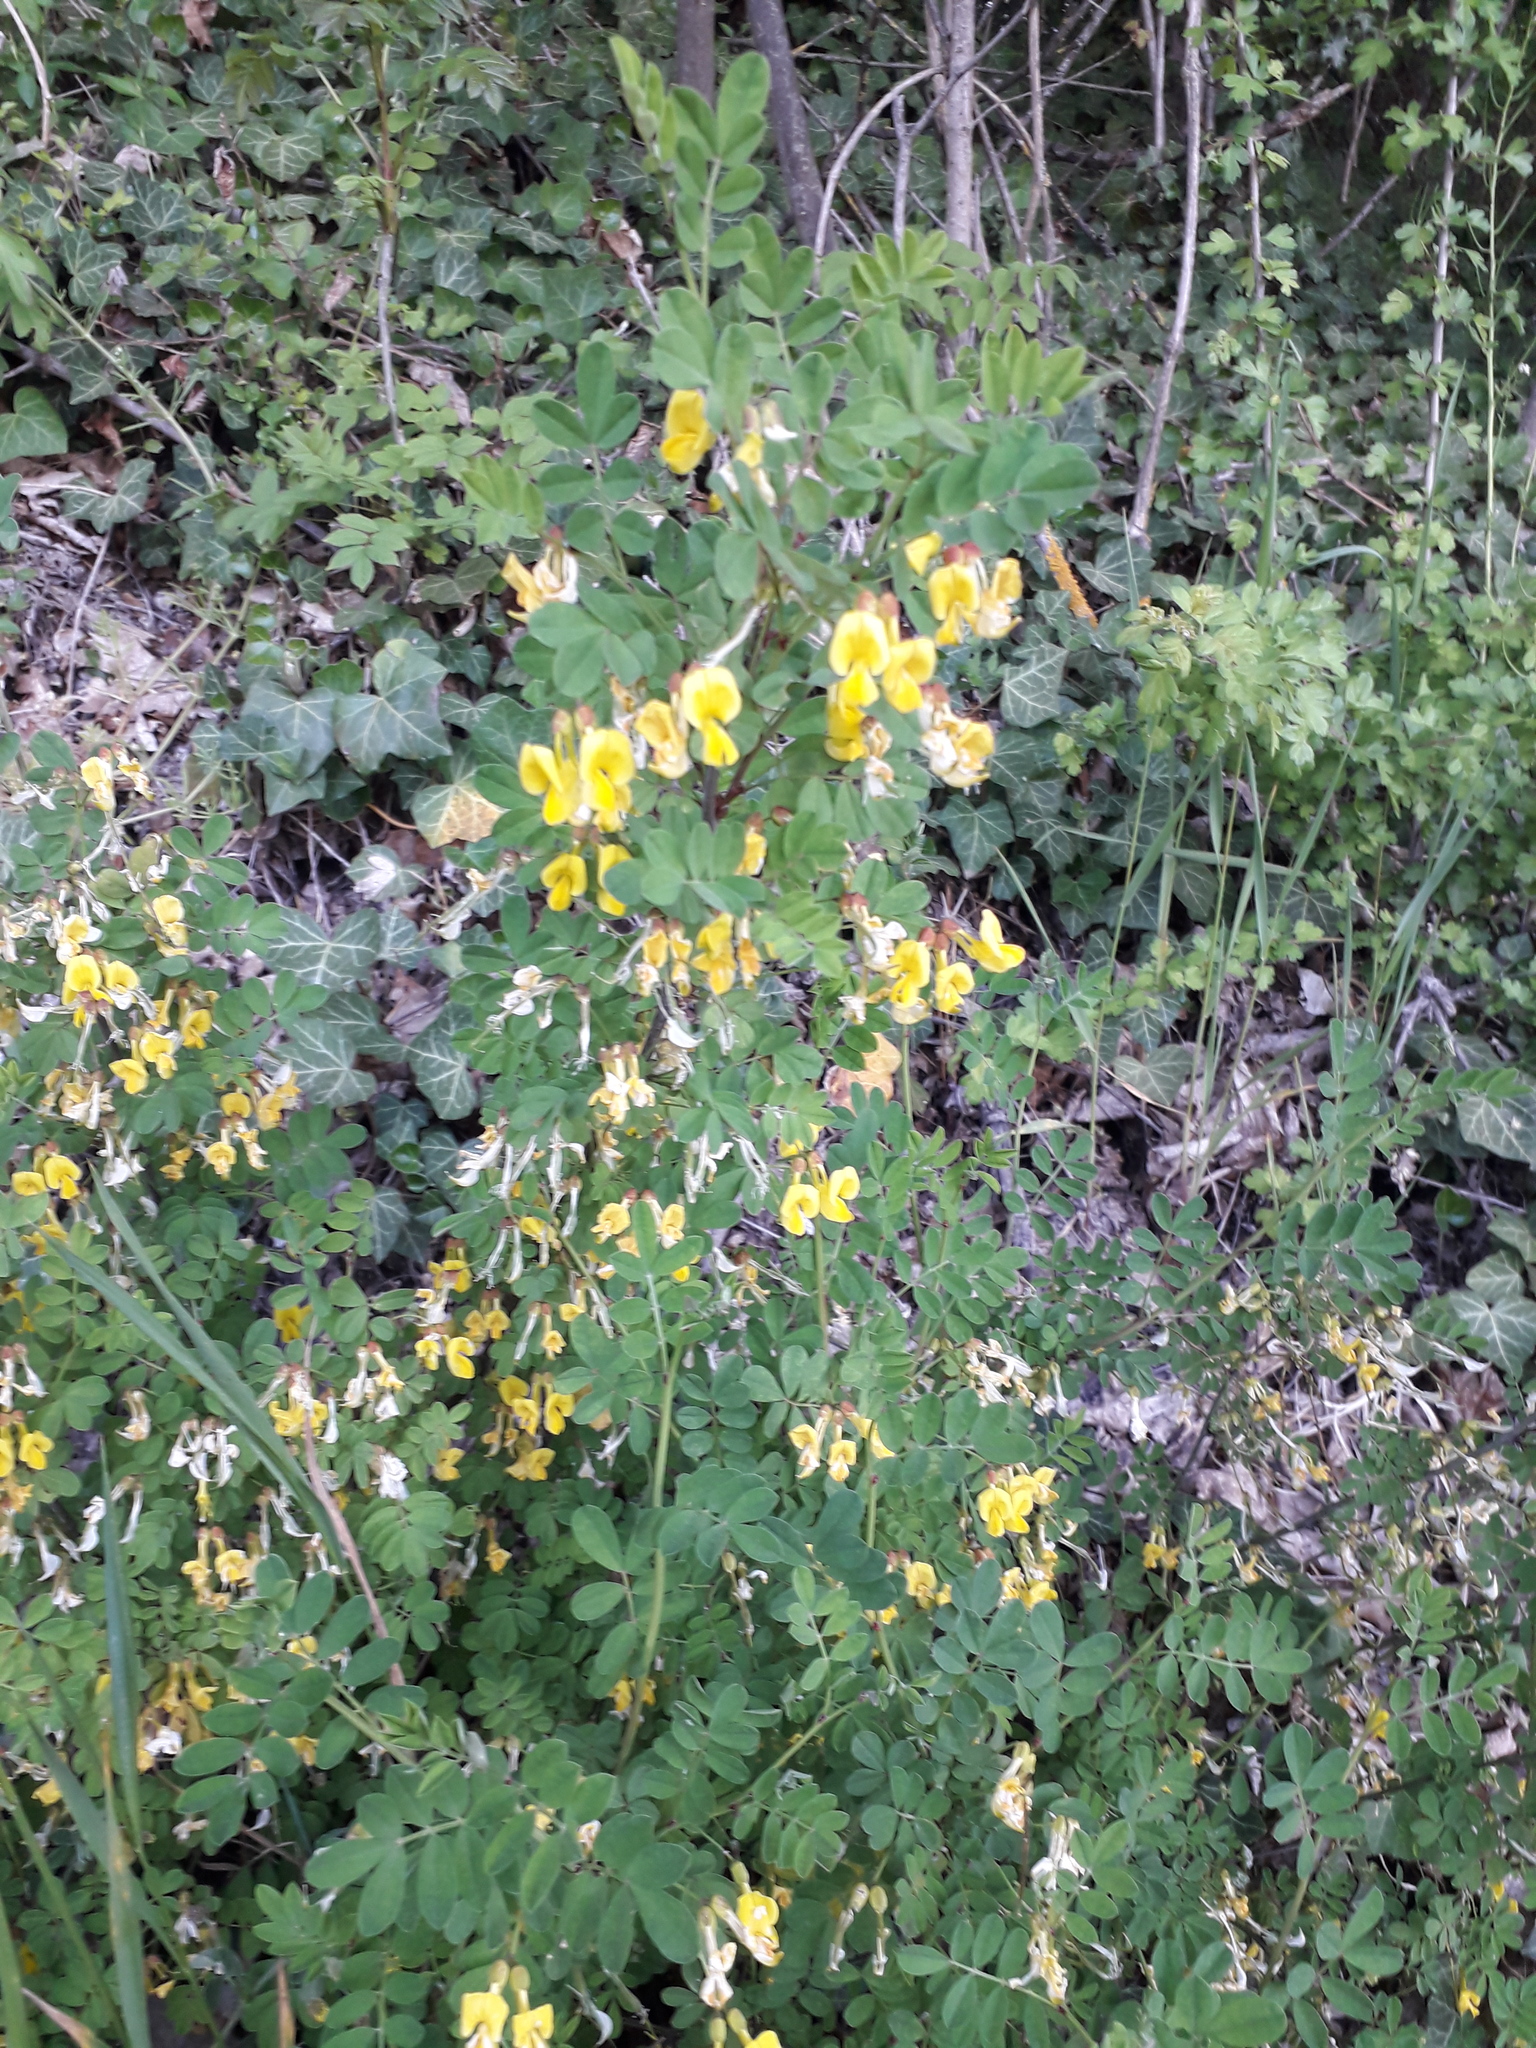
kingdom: Plantae
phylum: Tracheophyta
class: Magnoliopsida
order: Fabales
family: Fabaceae
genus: Hippocrepis
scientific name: Hippocrepis emerus
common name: Scorpion senna
